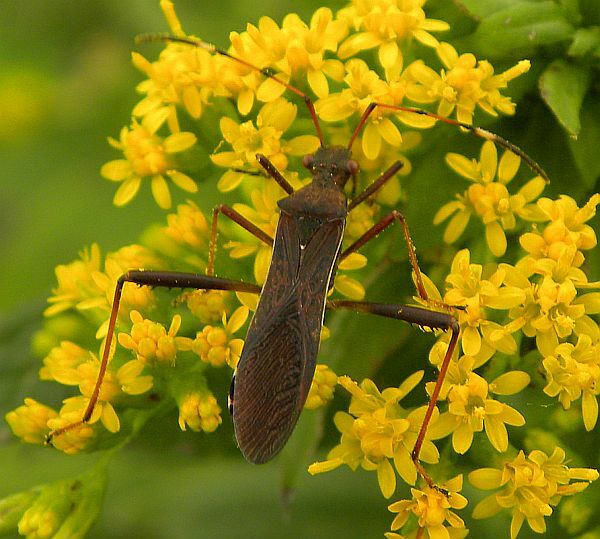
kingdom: Animalia
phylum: Arthropoda
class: Insecta
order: Hemiptera
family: Alydidae
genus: Megalotomus
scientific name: Megalotomus quinquespinosus
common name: Lupine bug
